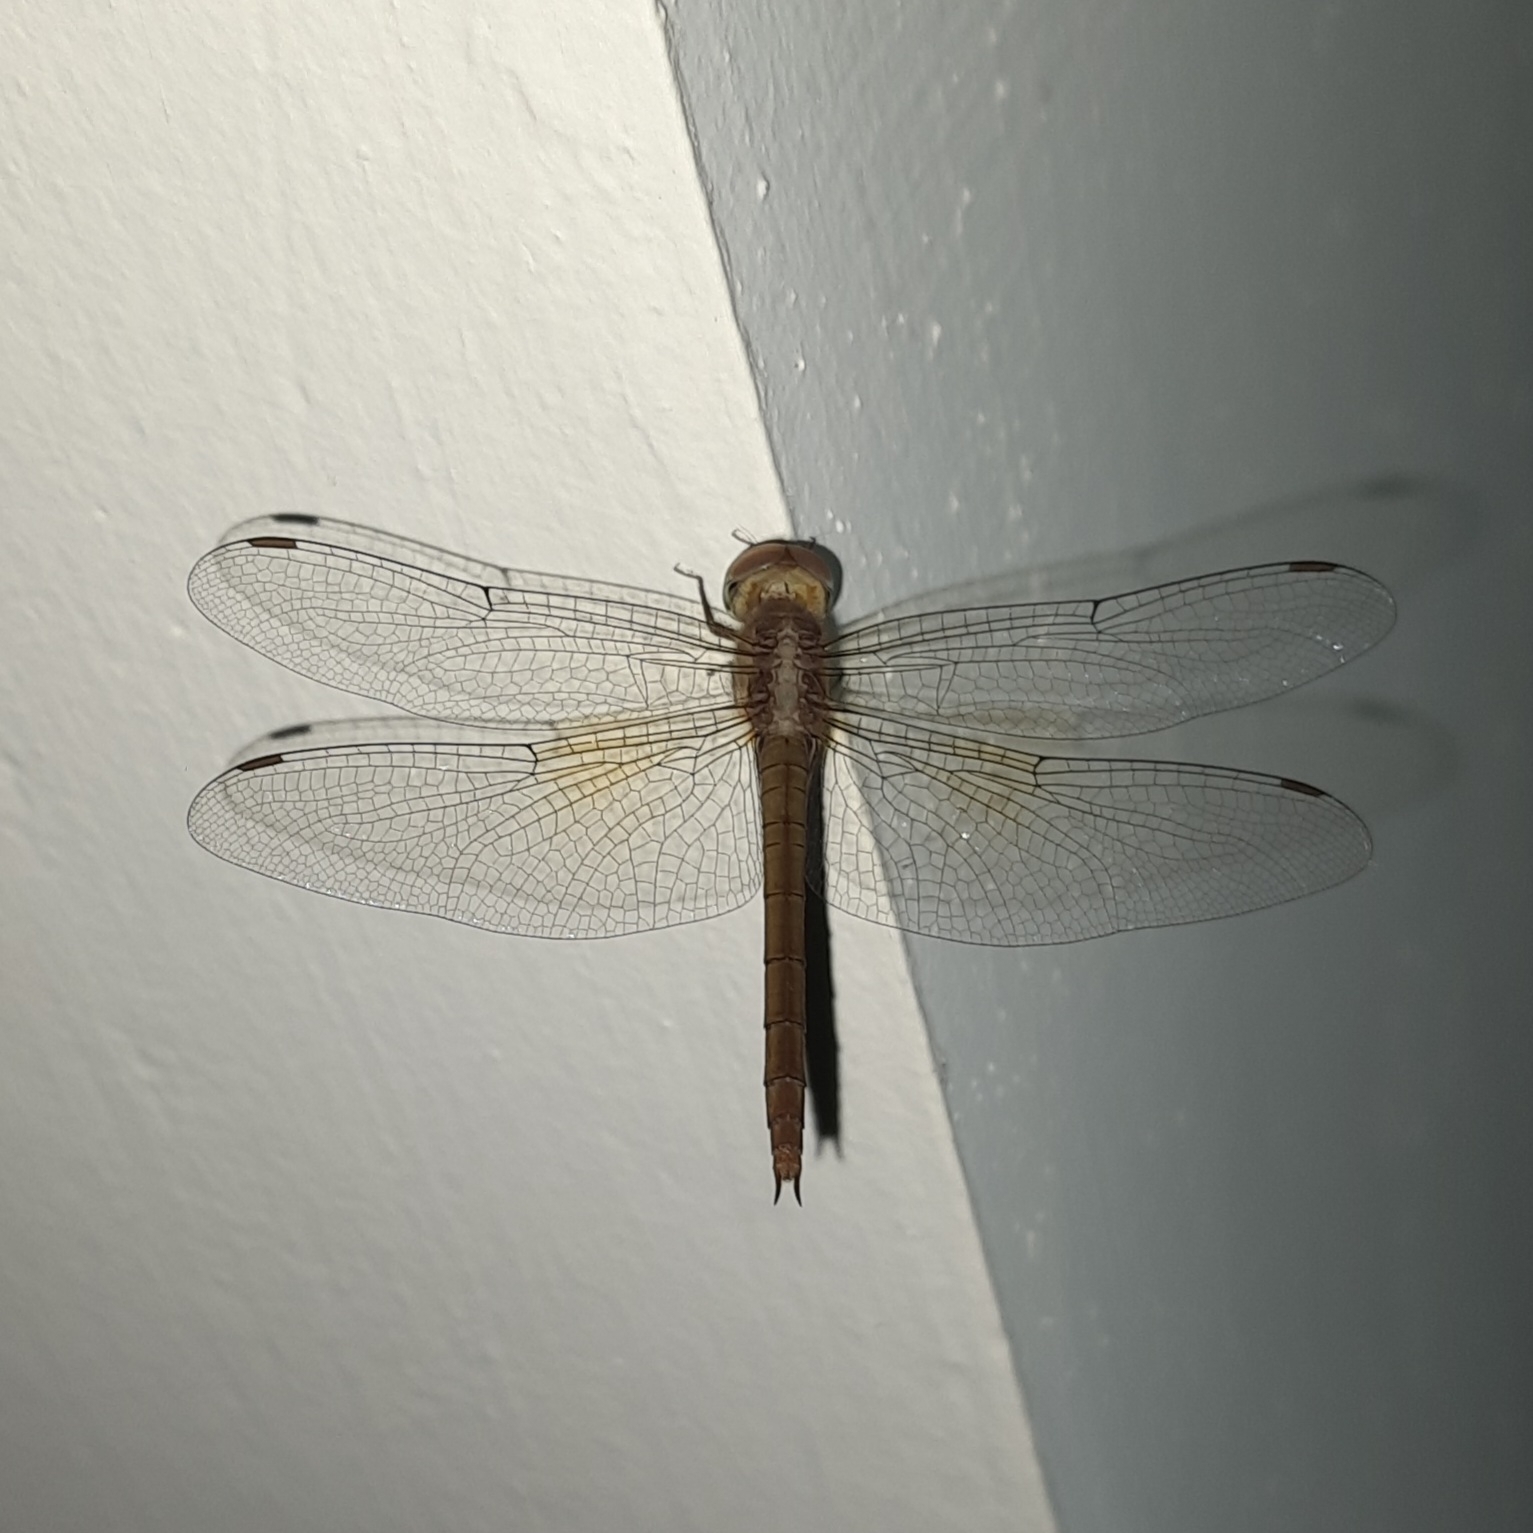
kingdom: Animalia
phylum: Arthropoda
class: Insecta
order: Odonata
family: Libellulidae
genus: Tholymis
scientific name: Tholymis tillarga
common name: Coral-tailed cloud wing
